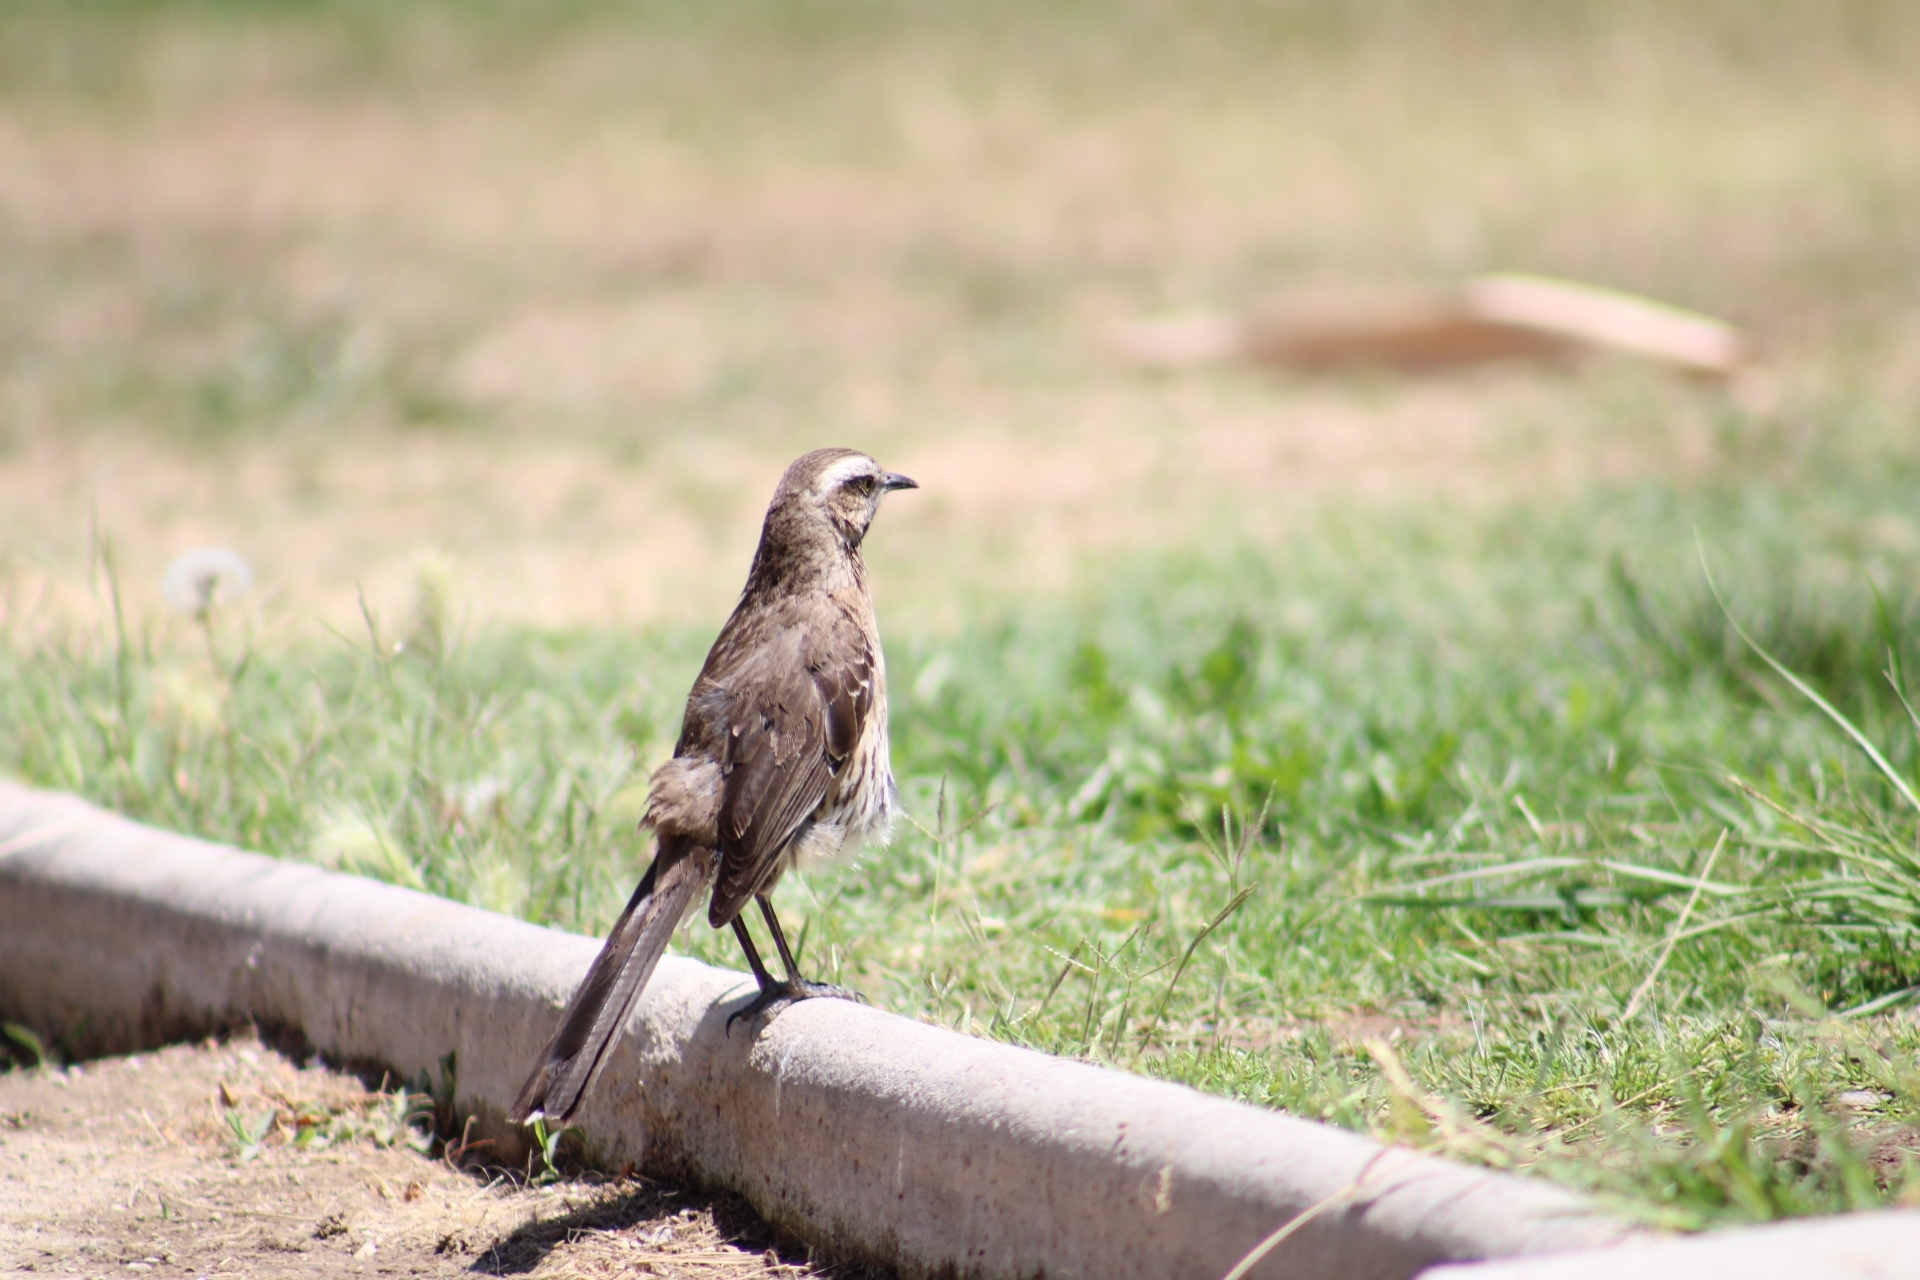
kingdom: Animalia
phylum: Chordata
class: Aves
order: Passeriformes
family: Mimidae
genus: Mimus
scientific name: Mimus thenca
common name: Chilean mockingbird
